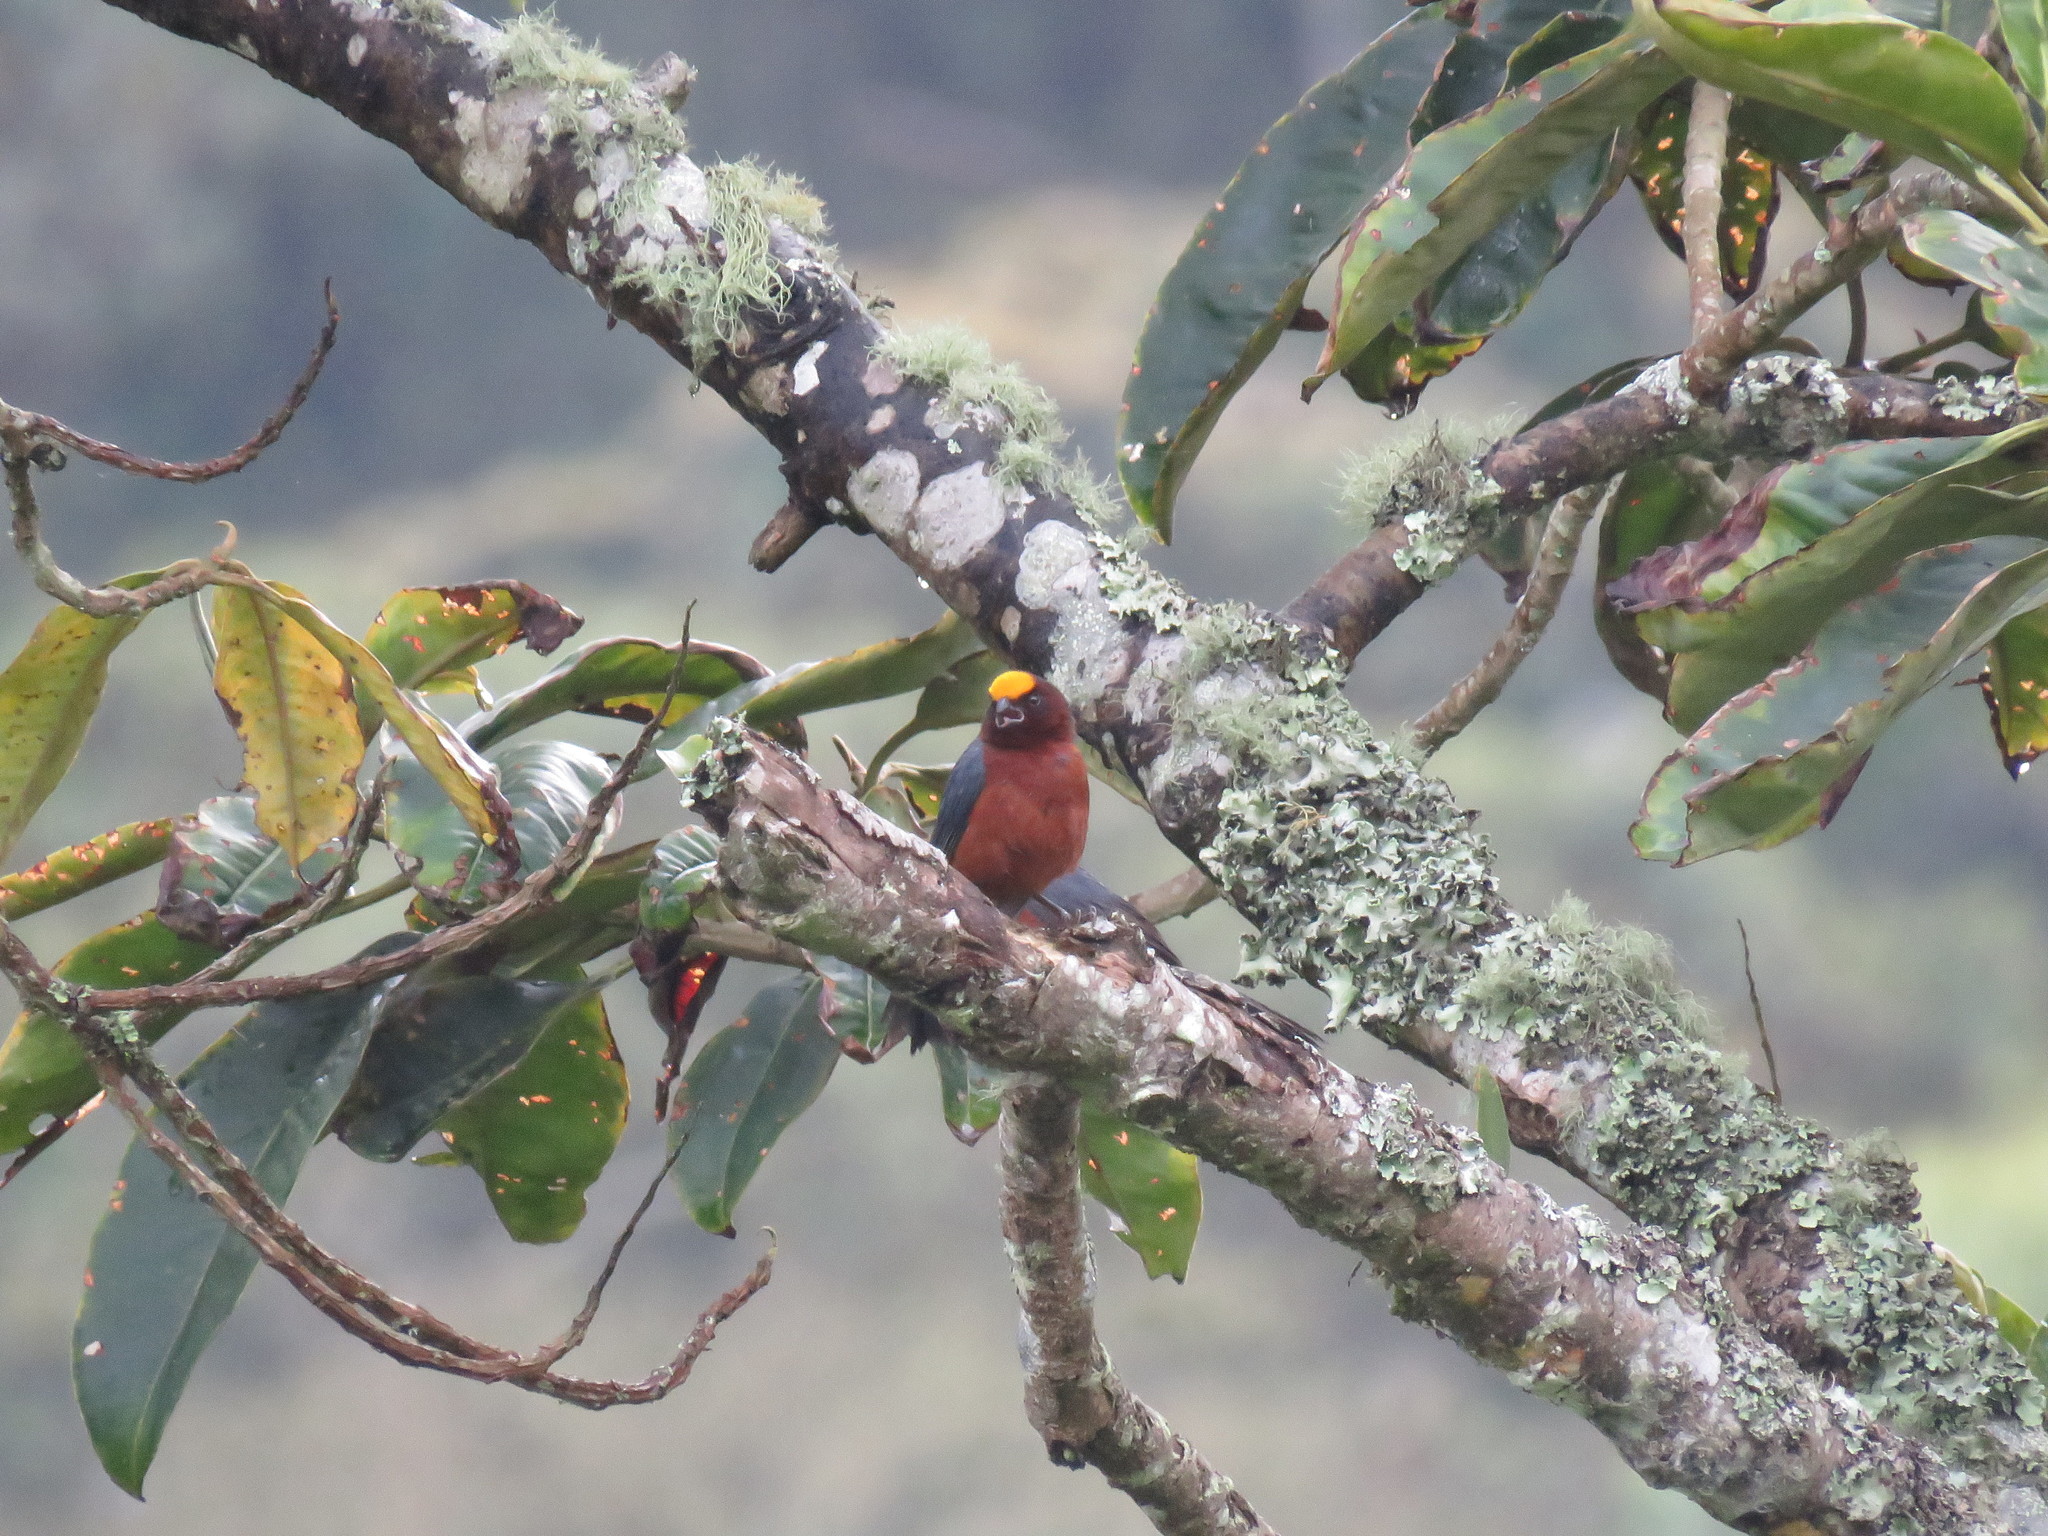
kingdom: Animalia
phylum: Chordata
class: Aves
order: Passeriformes
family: Thraupidae
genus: Catamblyrhynchus
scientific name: Catamblyrhynchus diadema
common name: Plushcap
